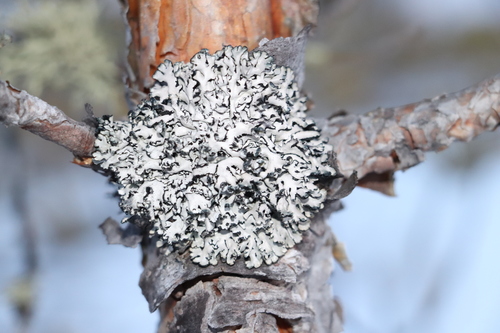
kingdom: Fungi
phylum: Ascomycota
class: Lecanoromycetes
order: Lecanorales
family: Parmeliaceae
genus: Hypogymnia
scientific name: Hypogymnia physodes
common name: Dark crottle
